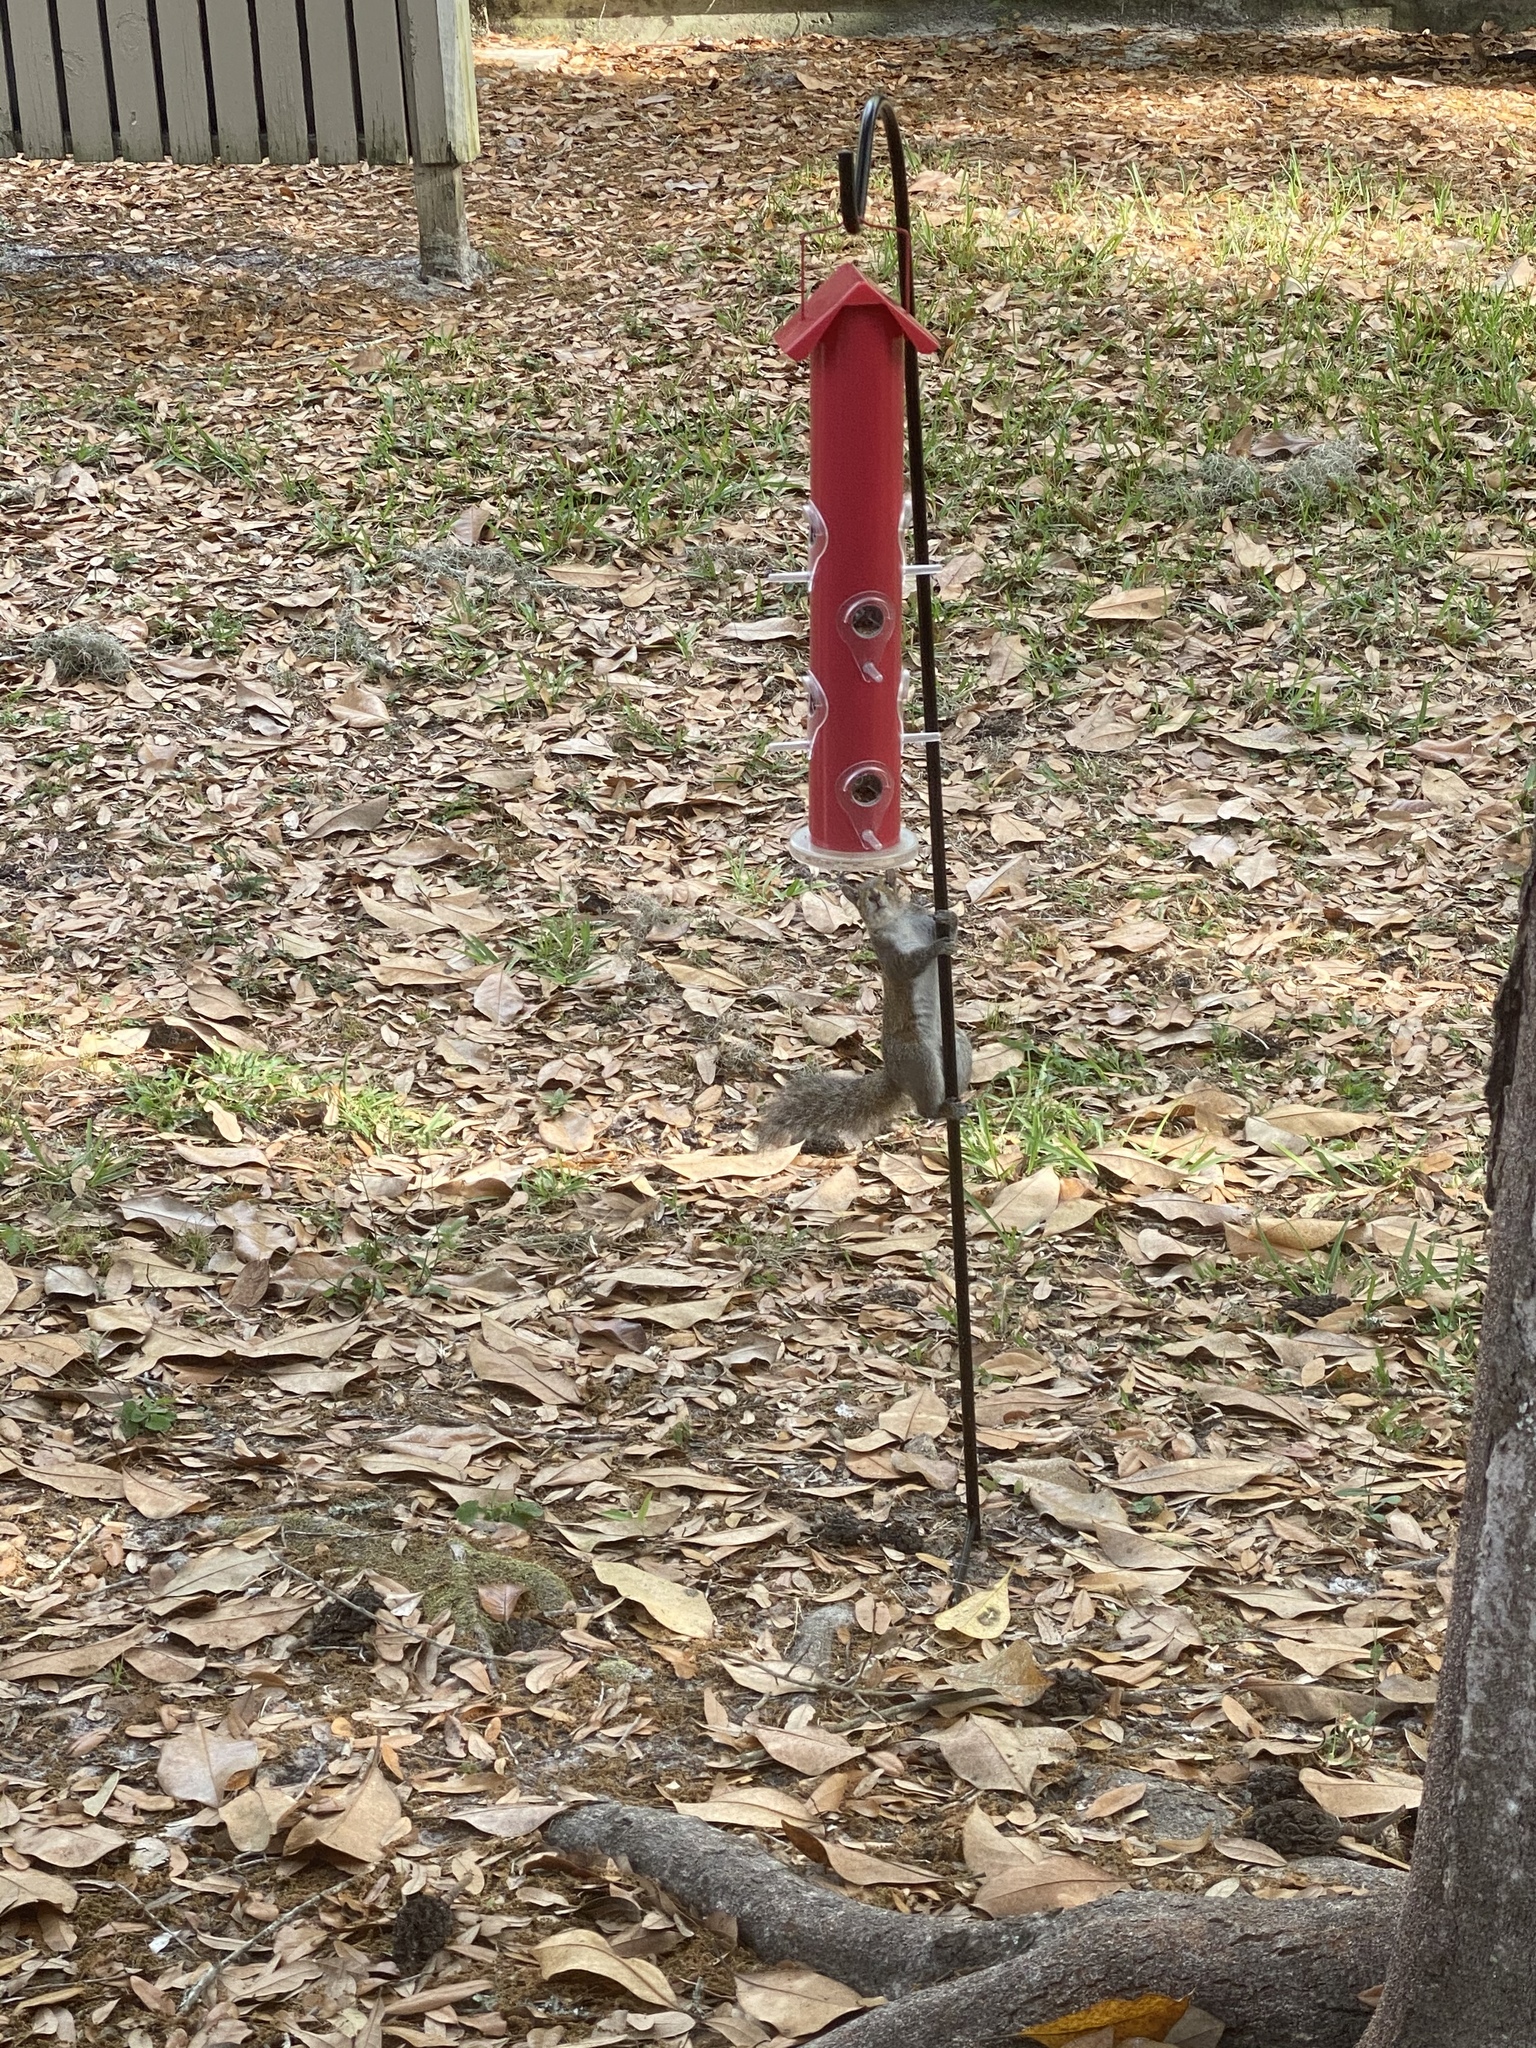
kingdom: Animalia
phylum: Chordata
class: Mammalia
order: Rodentia
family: Sciuridae
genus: Sciurus
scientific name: Sciurus carolinensis
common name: Eastern gray squirrel
